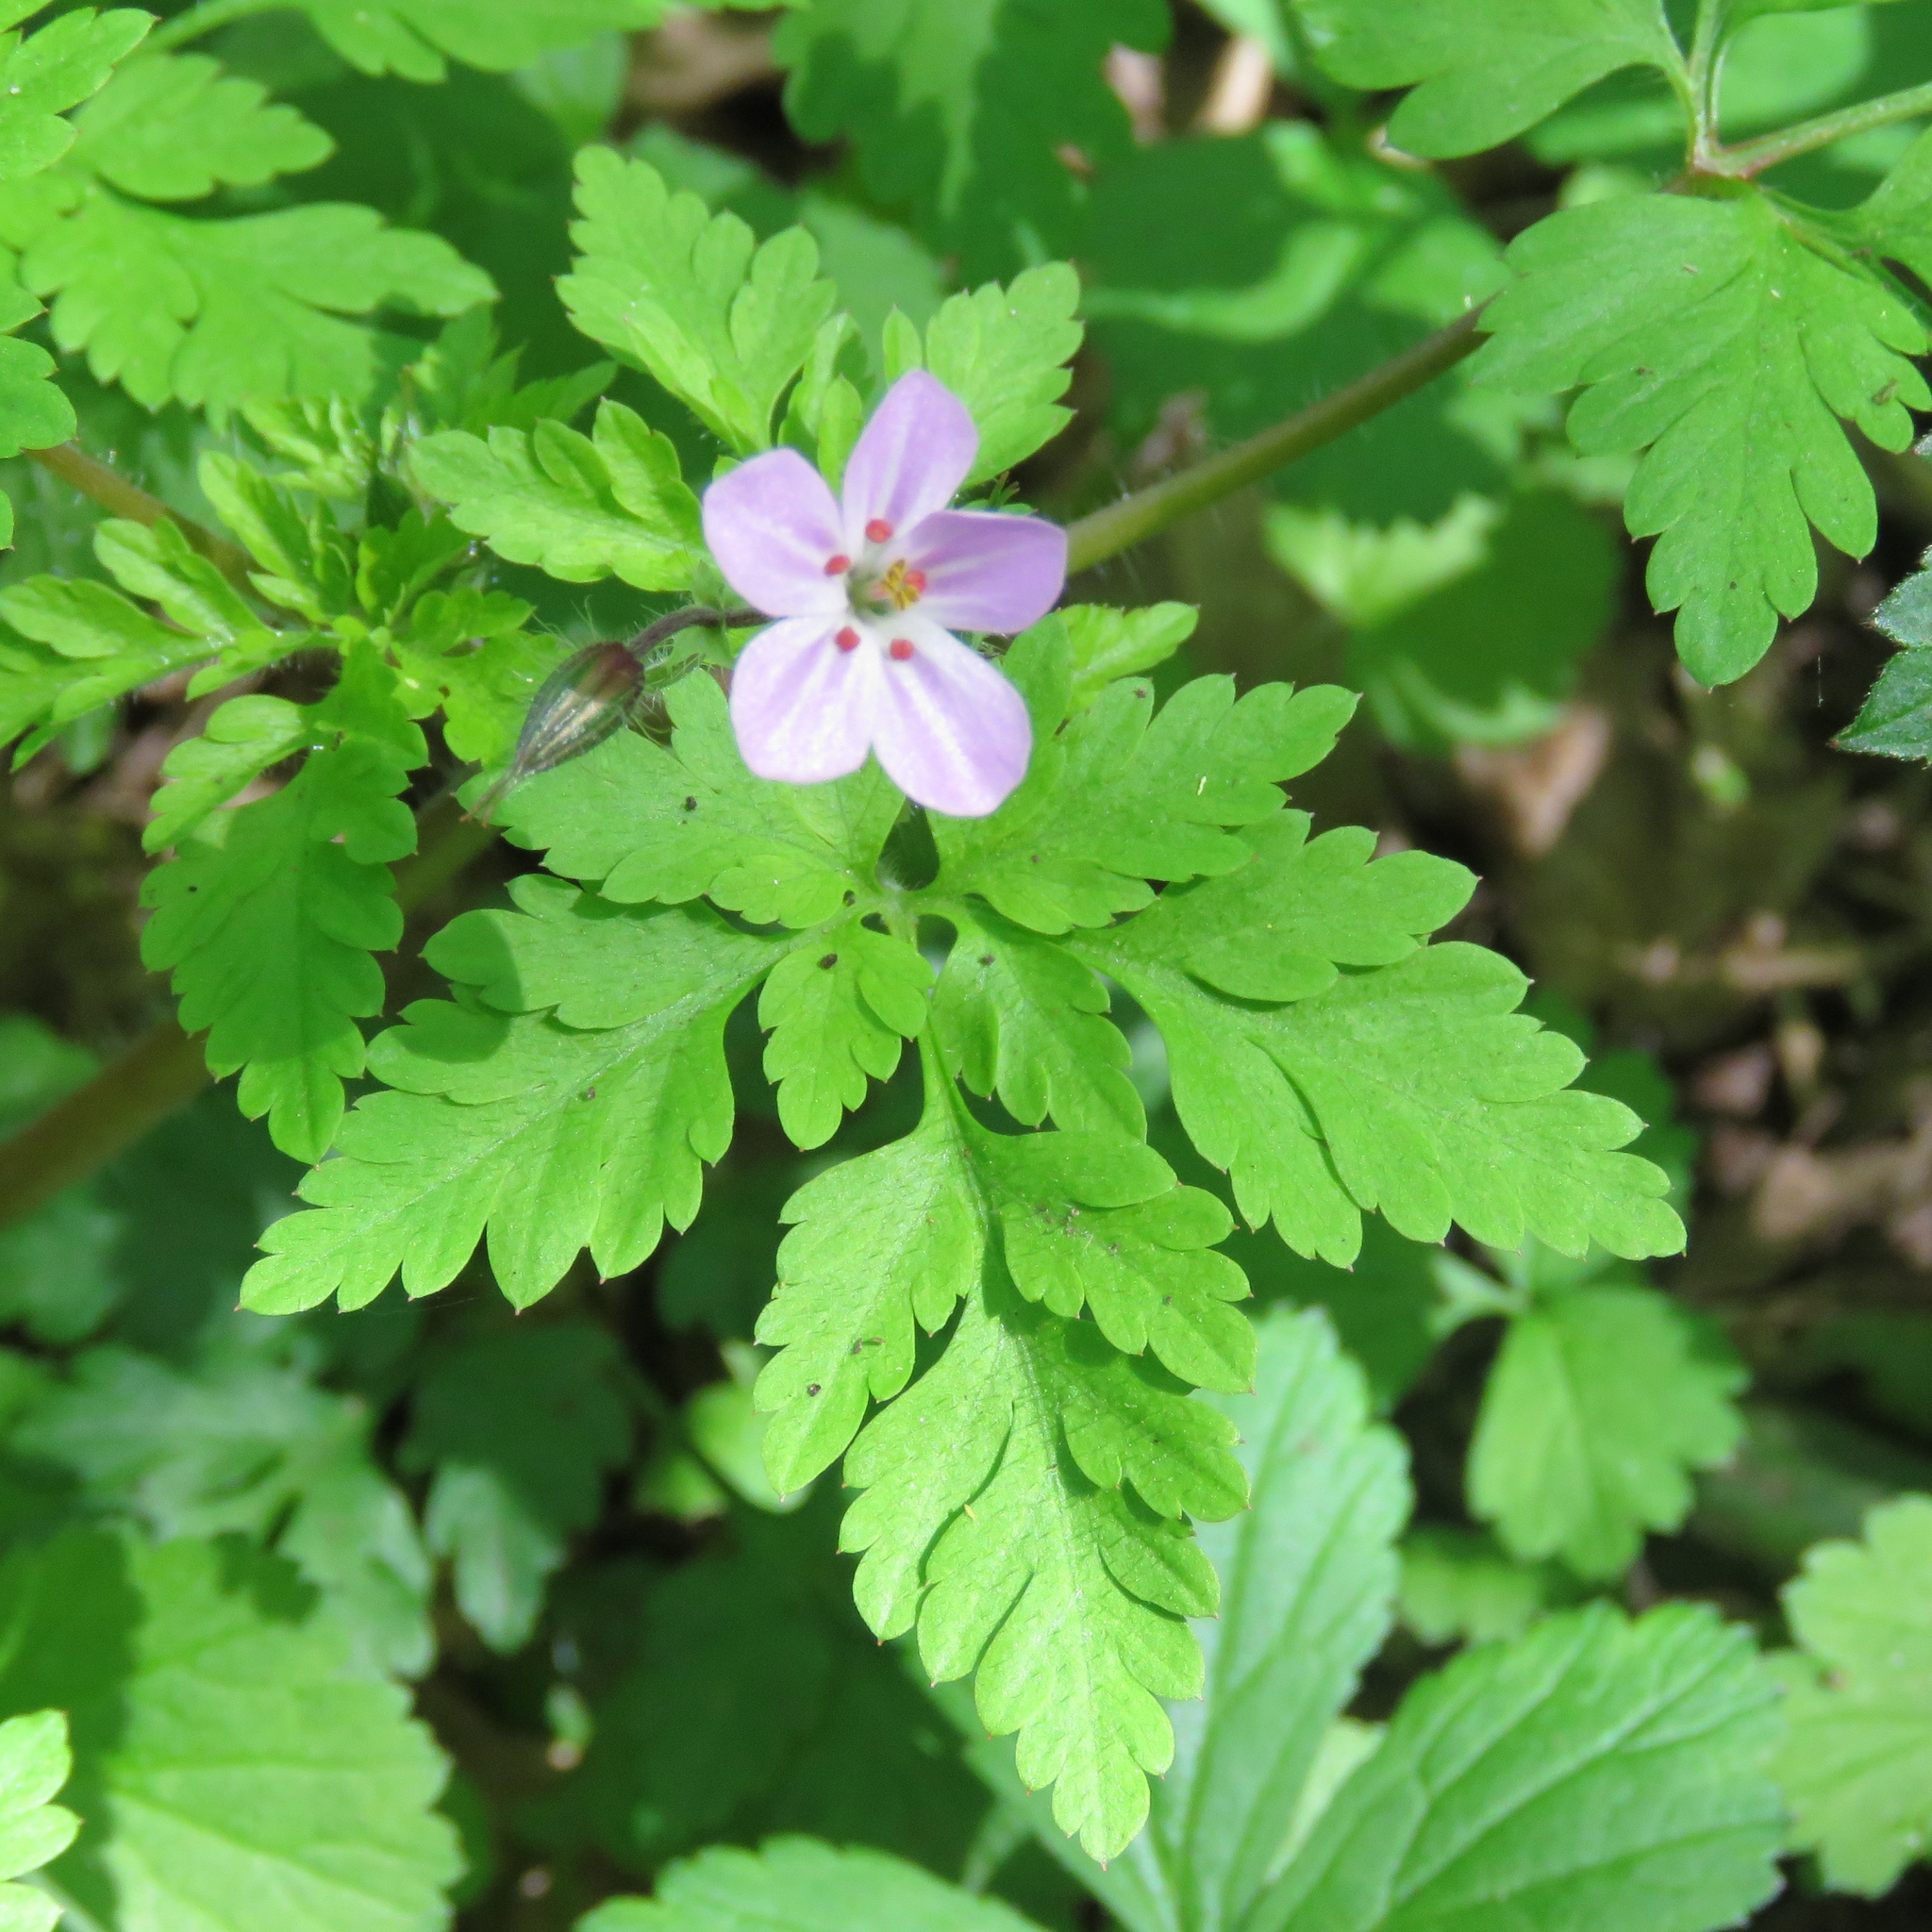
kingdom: Plantae
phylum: Tracheophyta
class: Magnoliopsida
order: Geraniales
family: Geraniaceae
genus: Geranium
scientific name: Geranium robertianum
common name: Herb-robert
